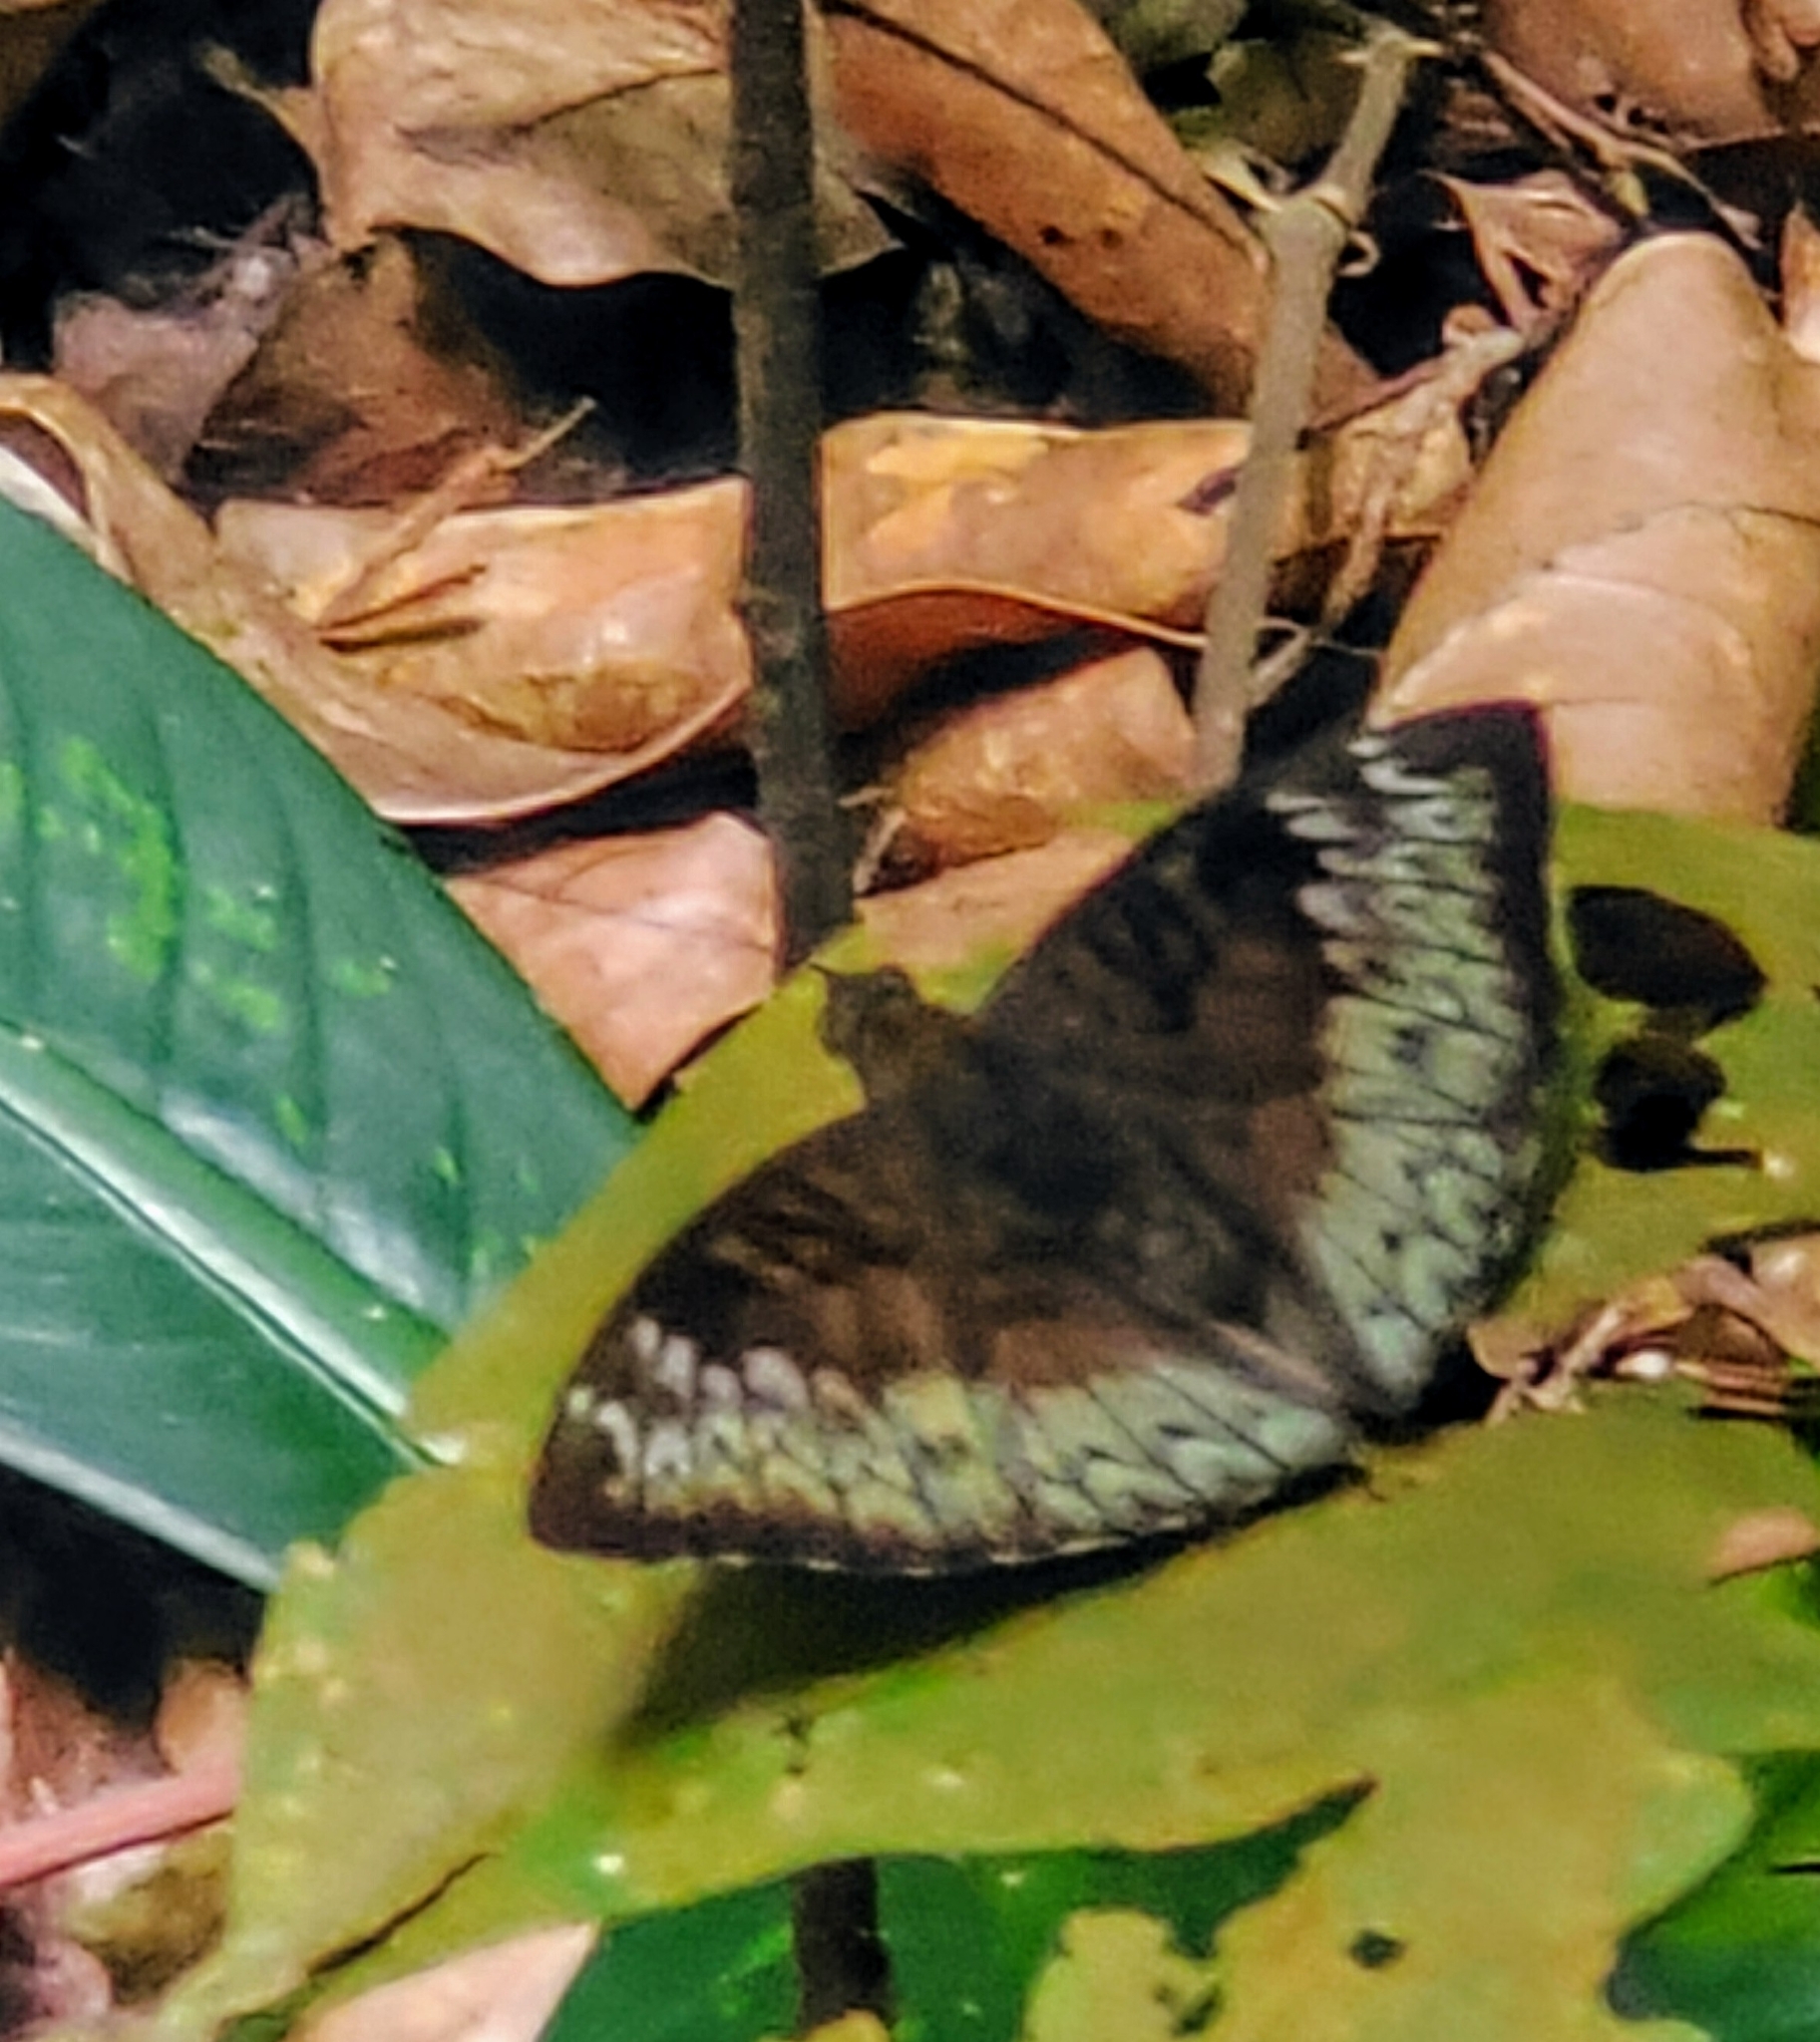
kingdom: Animalia
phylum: Arthropoda
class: Insecta
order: Lepidoptera
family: Nymphalidae
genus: Euthalia
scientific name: Euthalia monina
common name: Powdered baron
